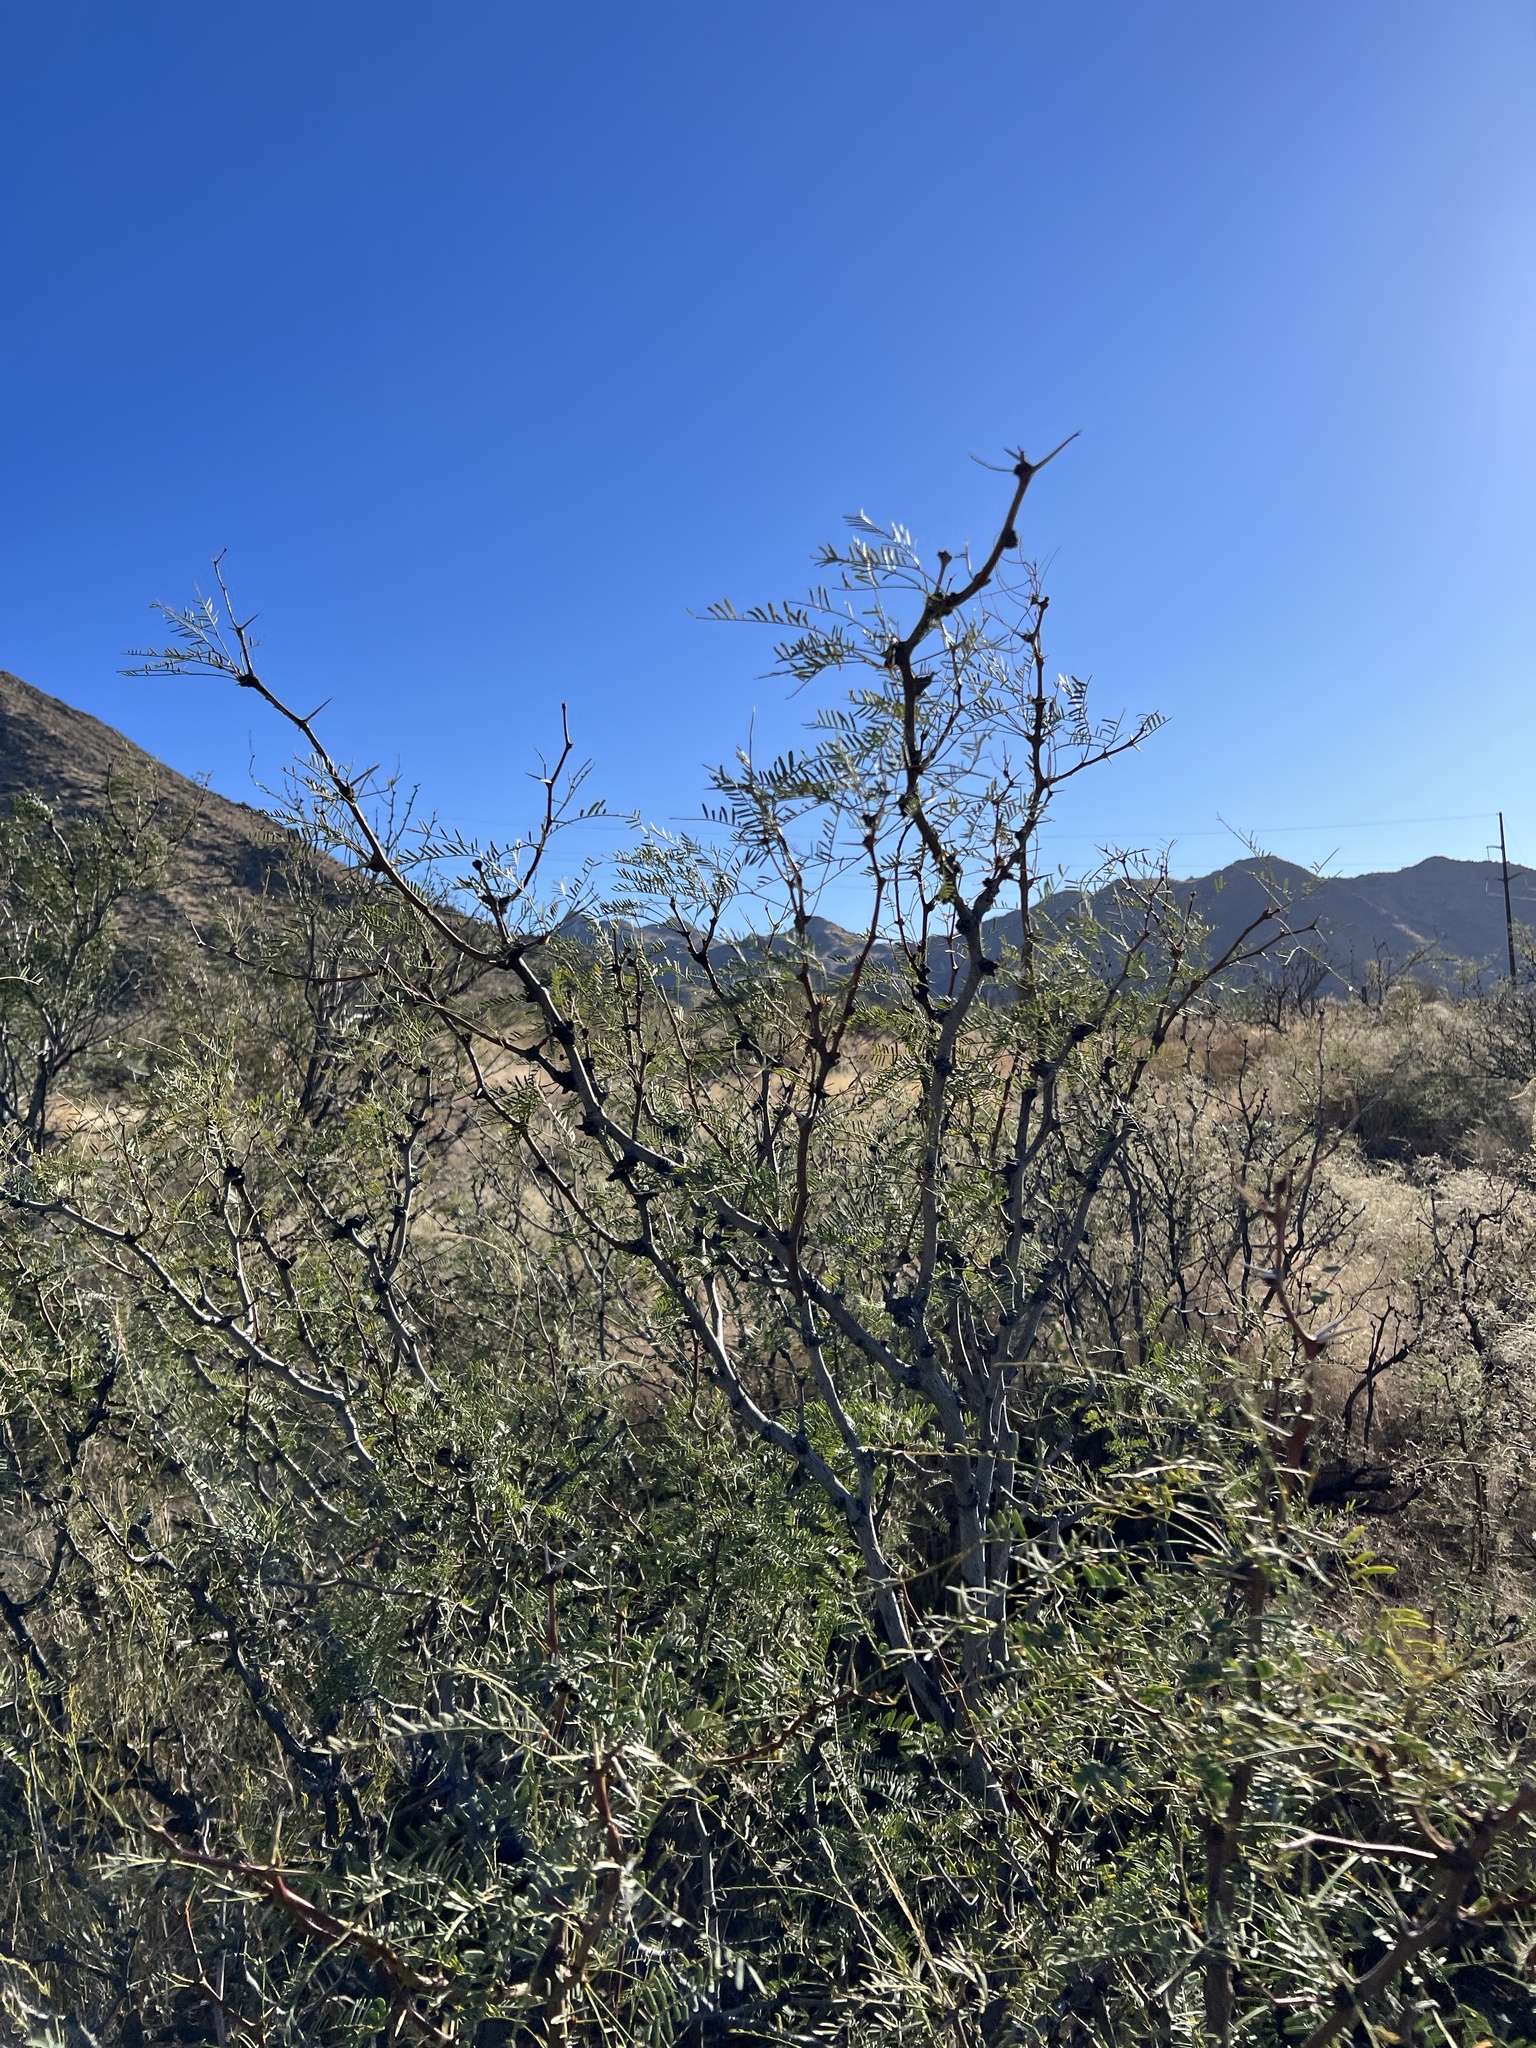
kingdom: Plantae
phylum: Tracheophyta
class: Magnoliopsida
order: Fabales
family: Fabaceae
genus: Prosopis
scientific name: Prosopis pubescens
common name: Screw-bean
